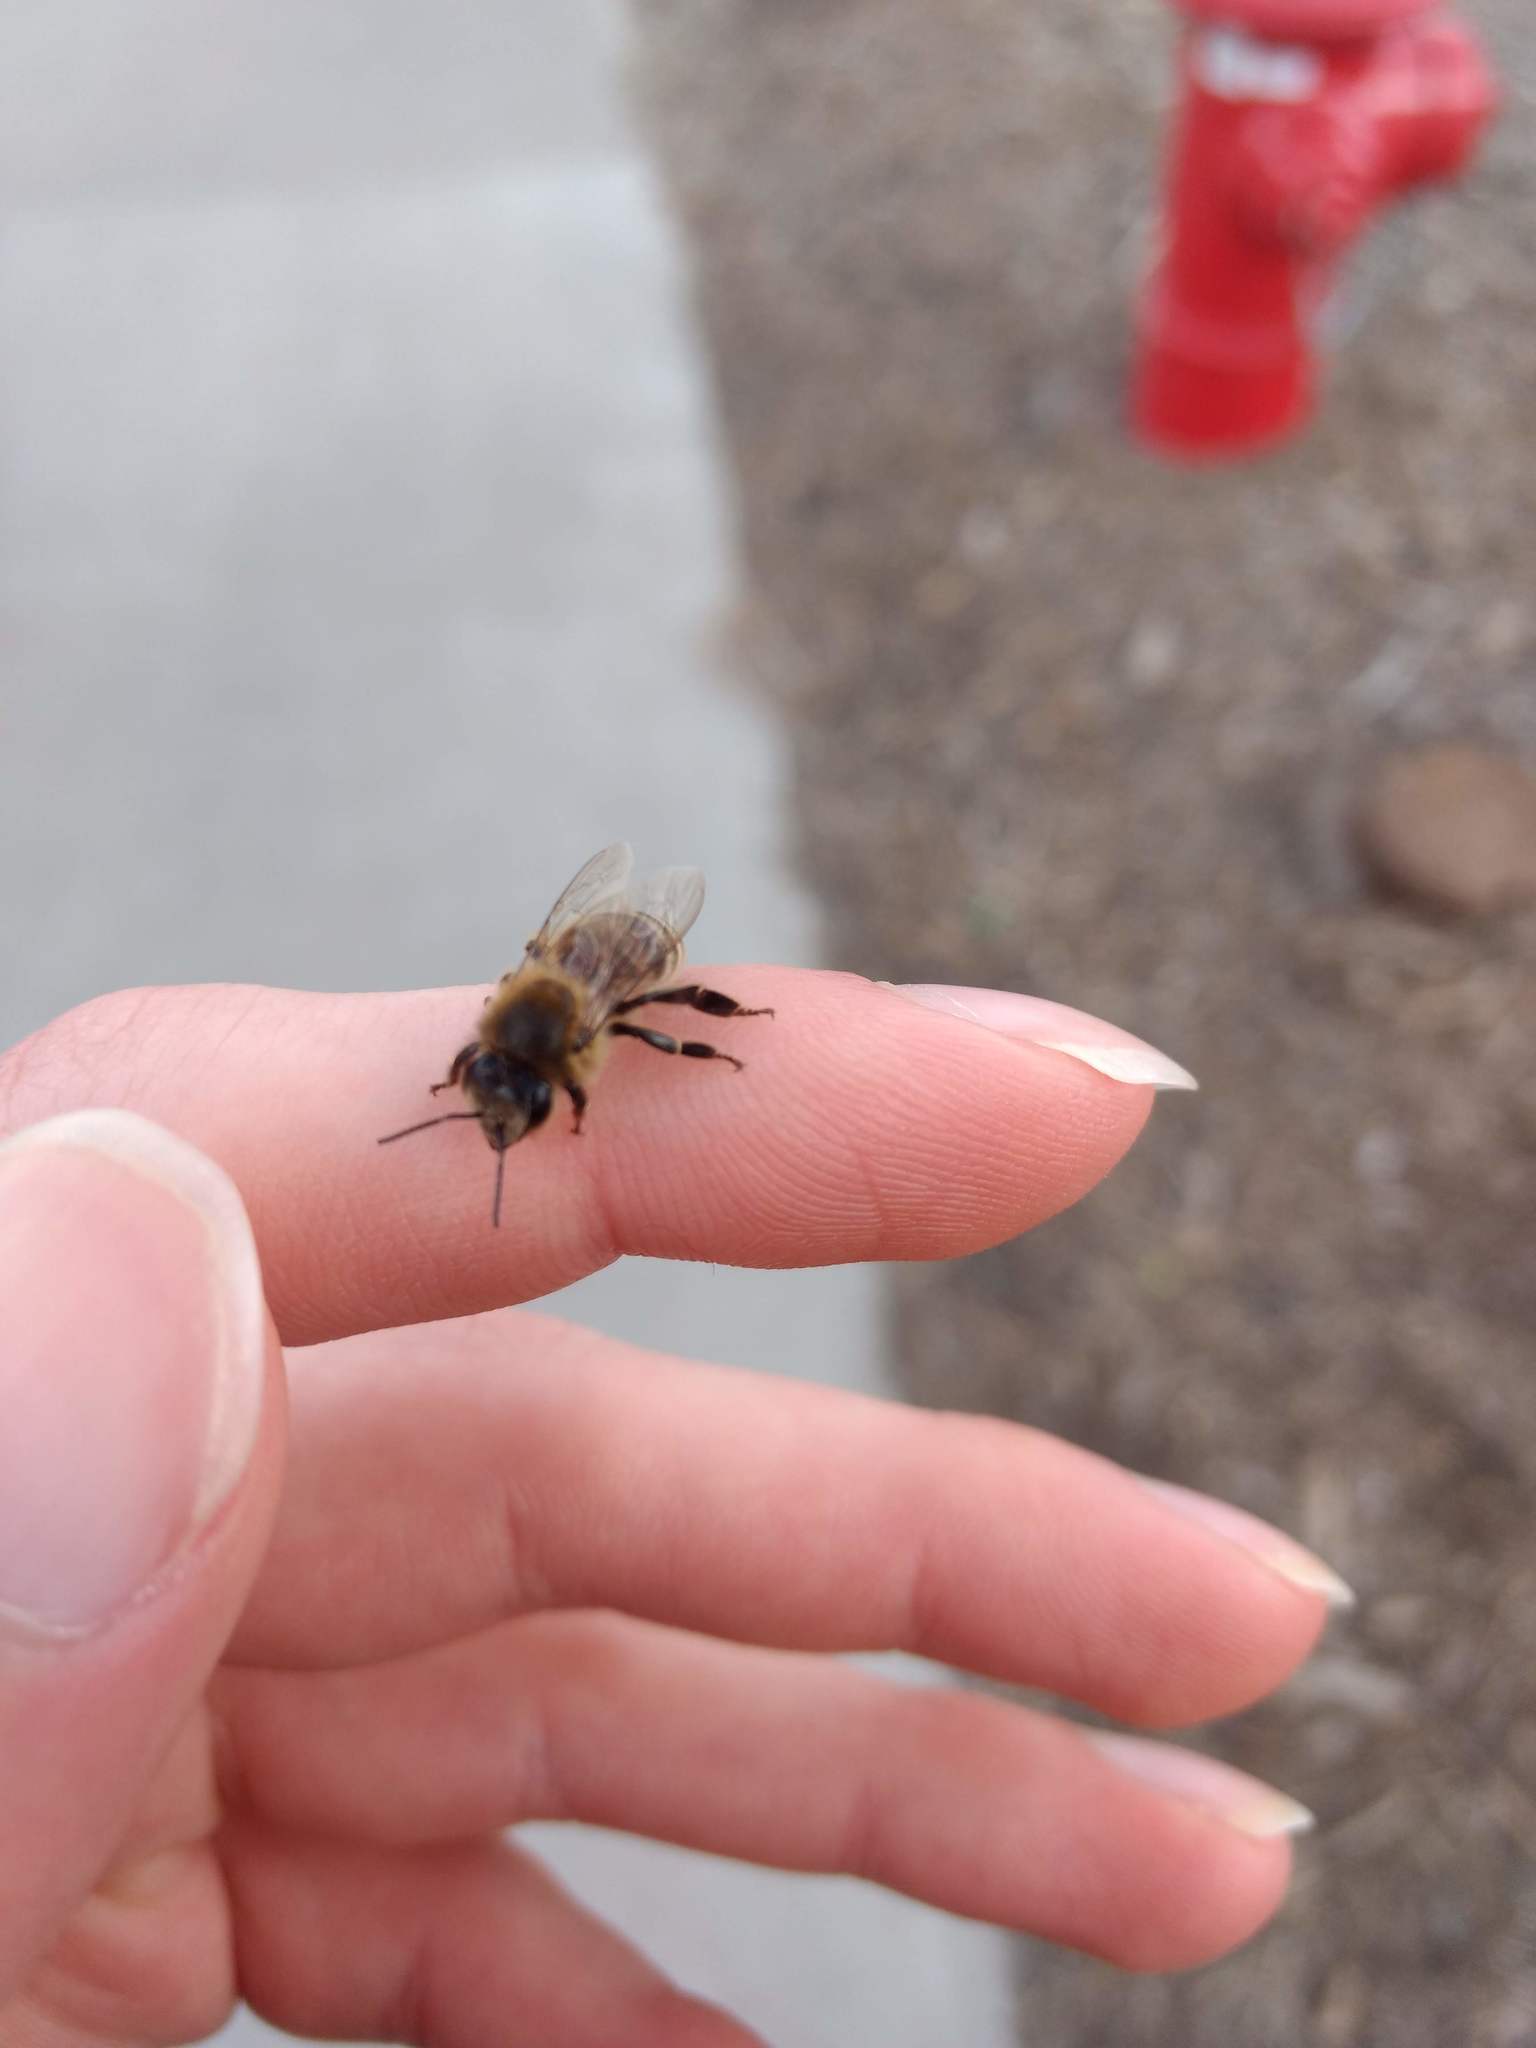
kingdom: Animalia
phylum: Arthropoda
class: Insecta
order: Hymenoptera
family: Apidae
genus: Apis
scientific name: Apis mellifera
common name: Honey bee
